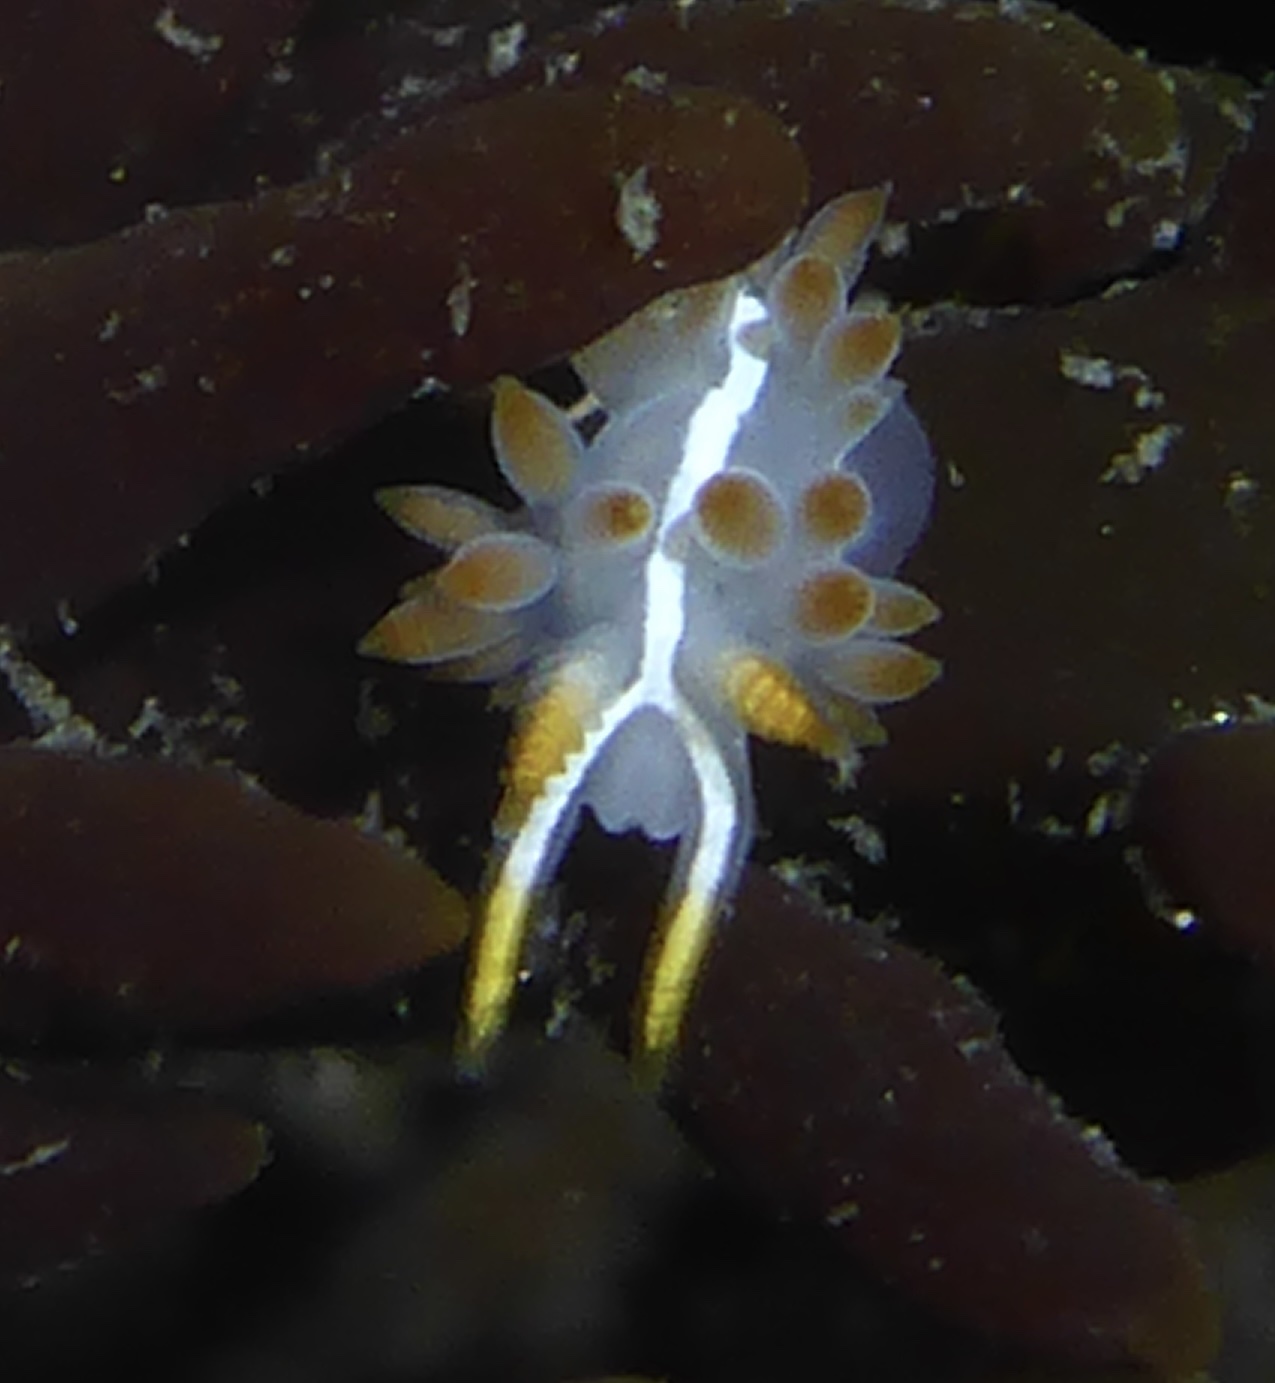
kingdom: Animalia
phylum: Mollusca
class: Gastropoda
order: Nudibranchia
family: Coryphellidae
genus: Coryphella
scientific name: Coryphella trilineata
